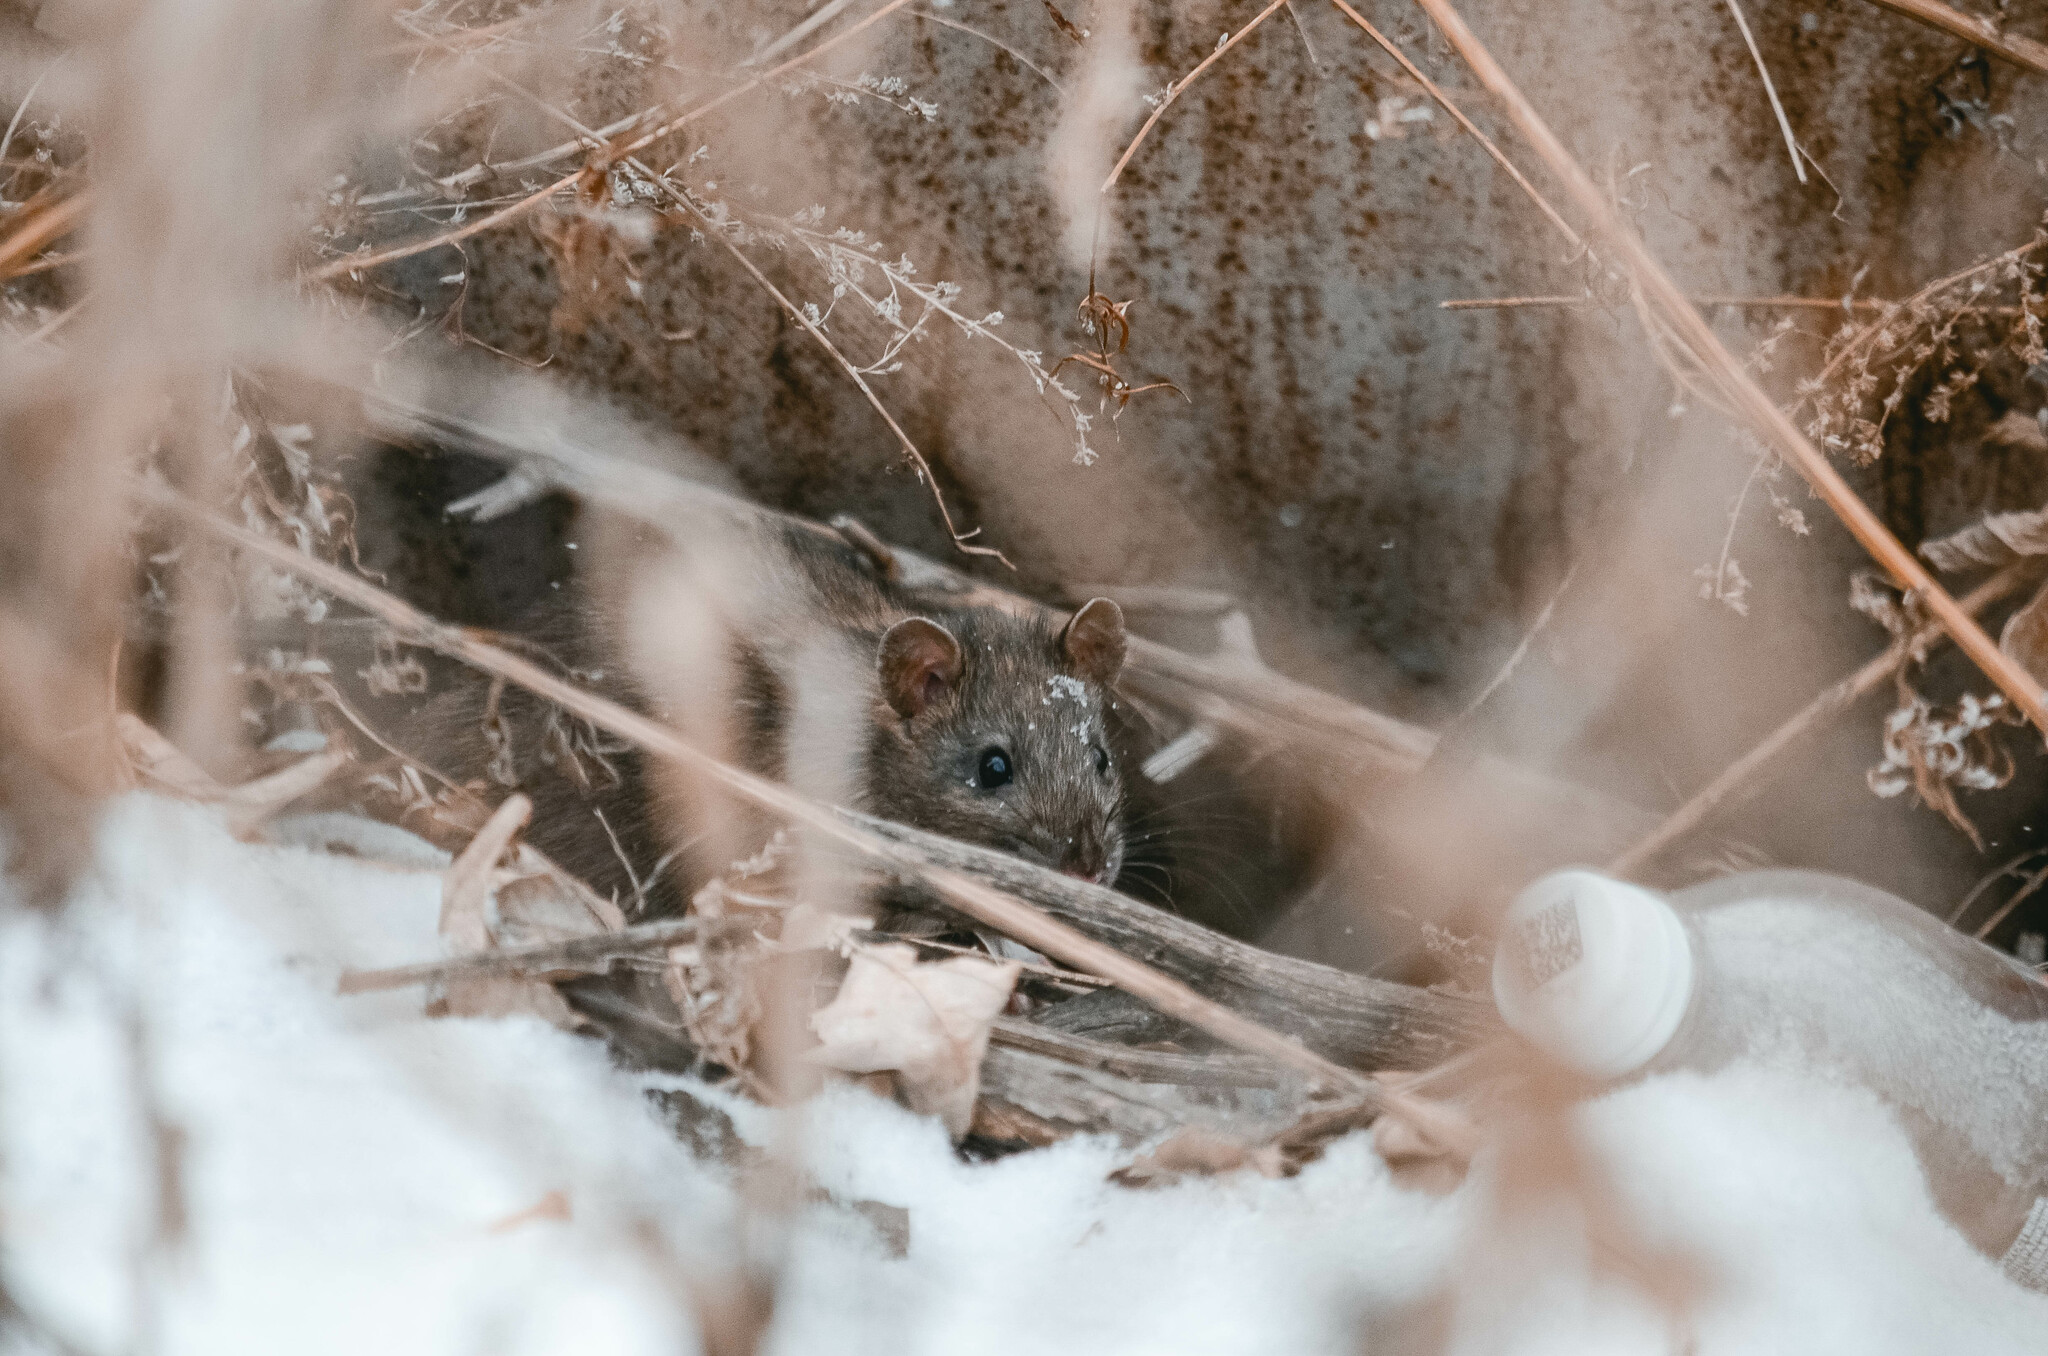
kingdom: Animalia
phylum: Chordata
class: Mammalia
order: Rodentia
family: Muridae
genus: Rattus
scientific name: Rattus norvegicus
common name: Brown rat
